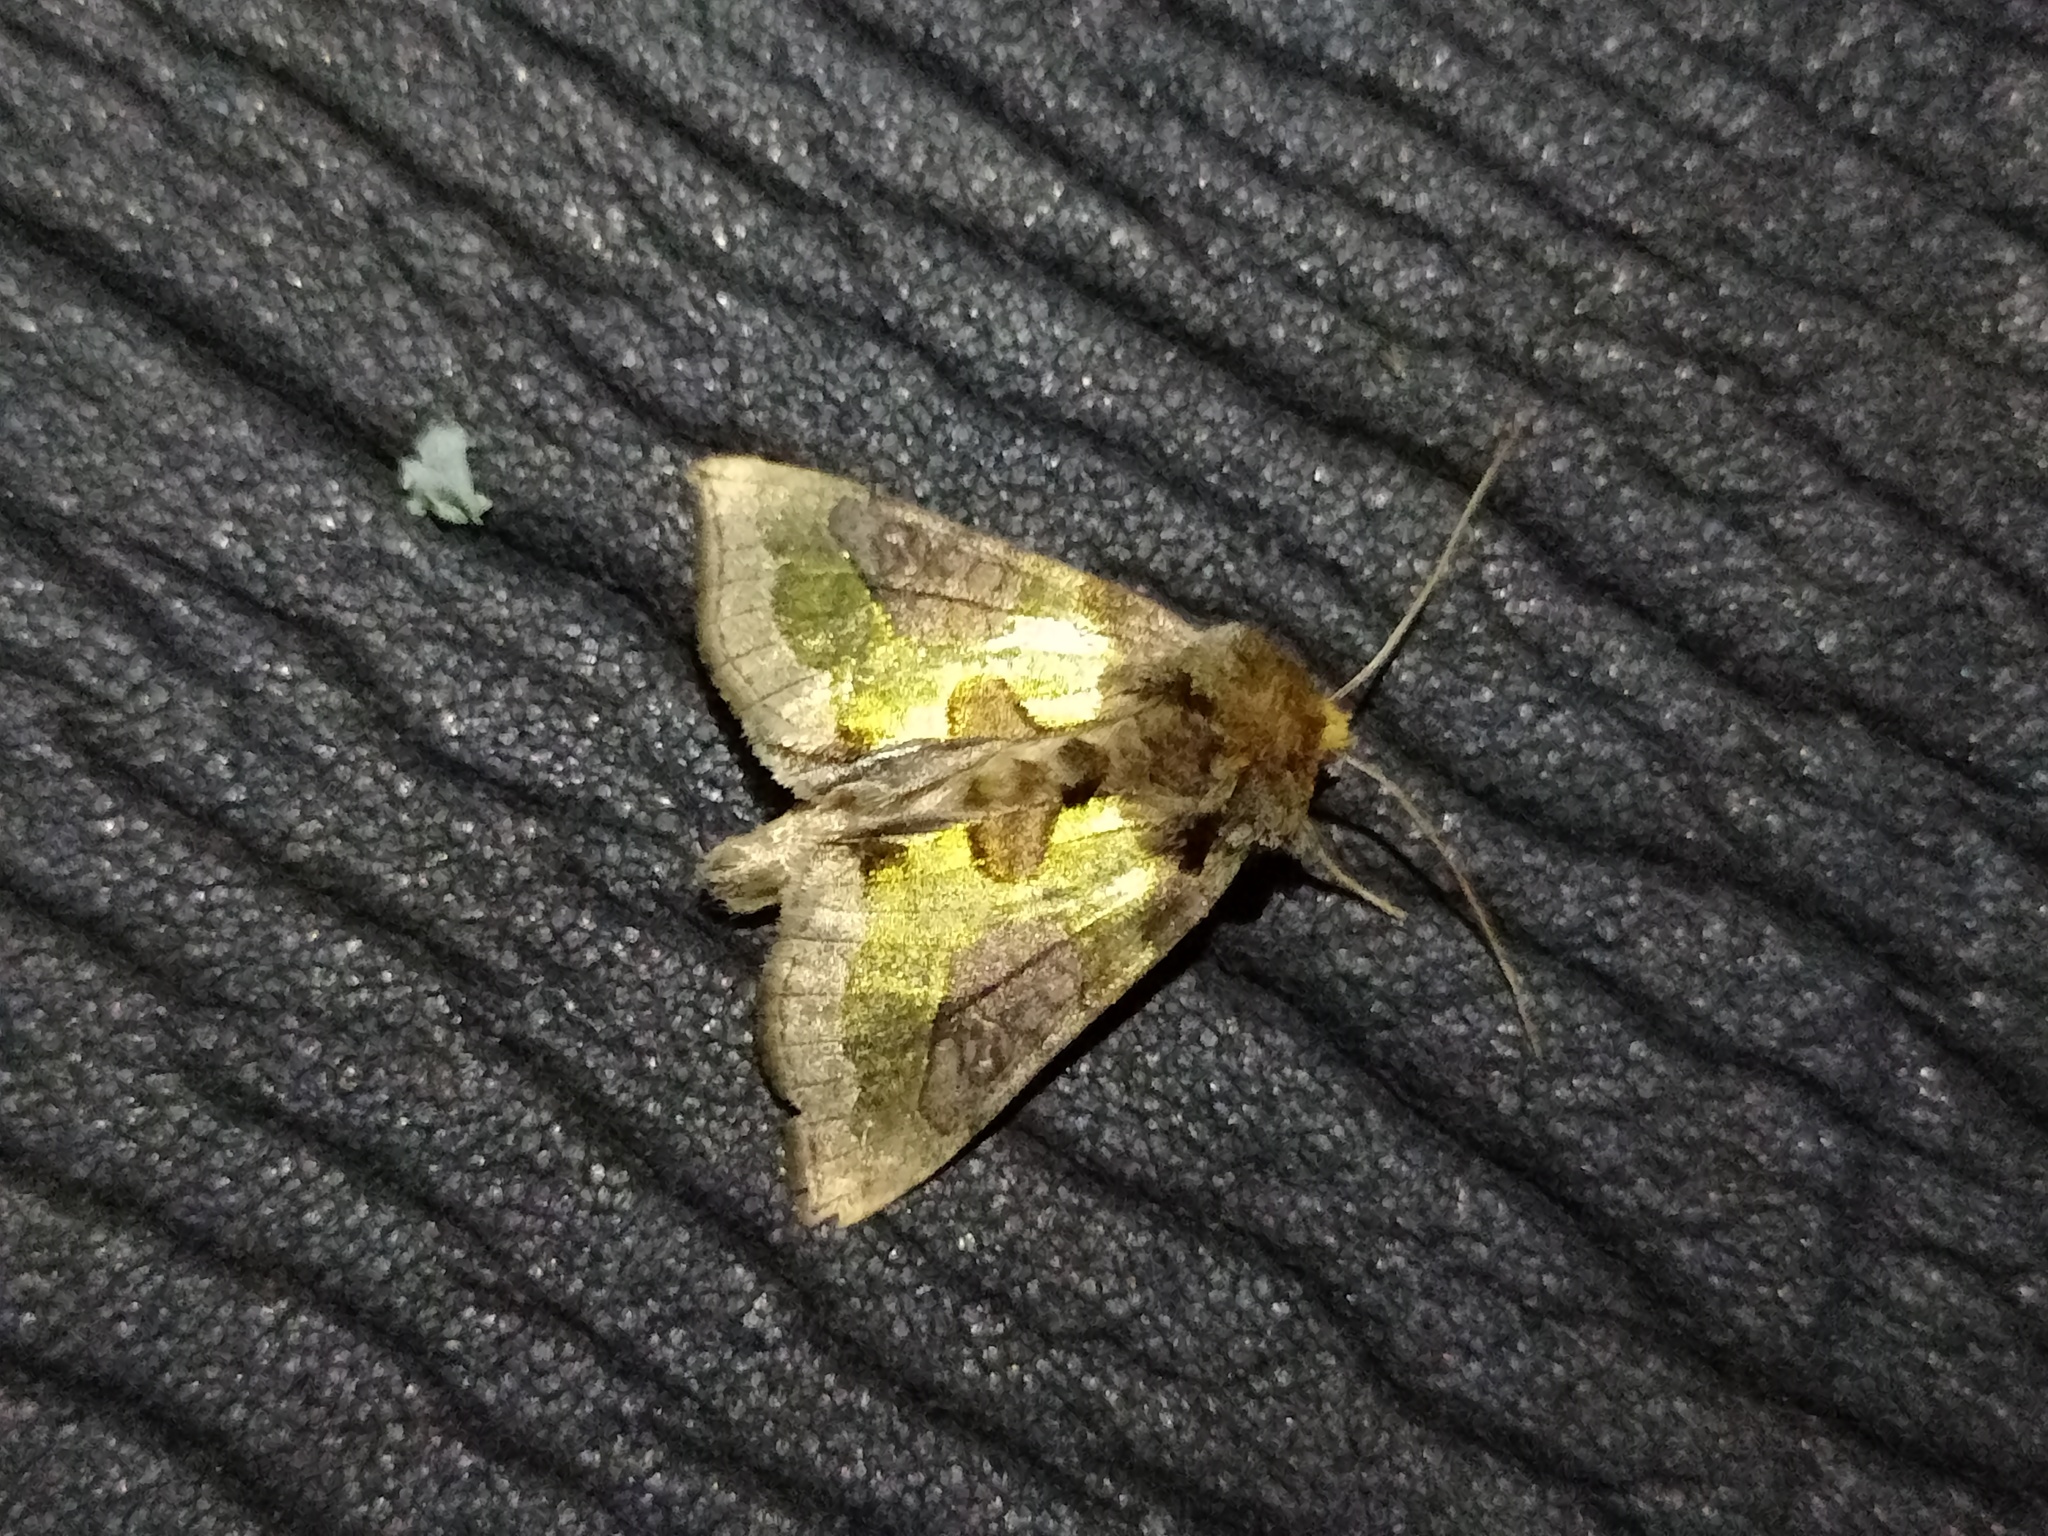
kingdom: Animalia
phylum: Arthropoda
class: Insecta
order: Lepidoptera
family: Noctuidae
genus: Diachrysia
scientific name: Diachrysia chrysitis
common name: Burnished brass
